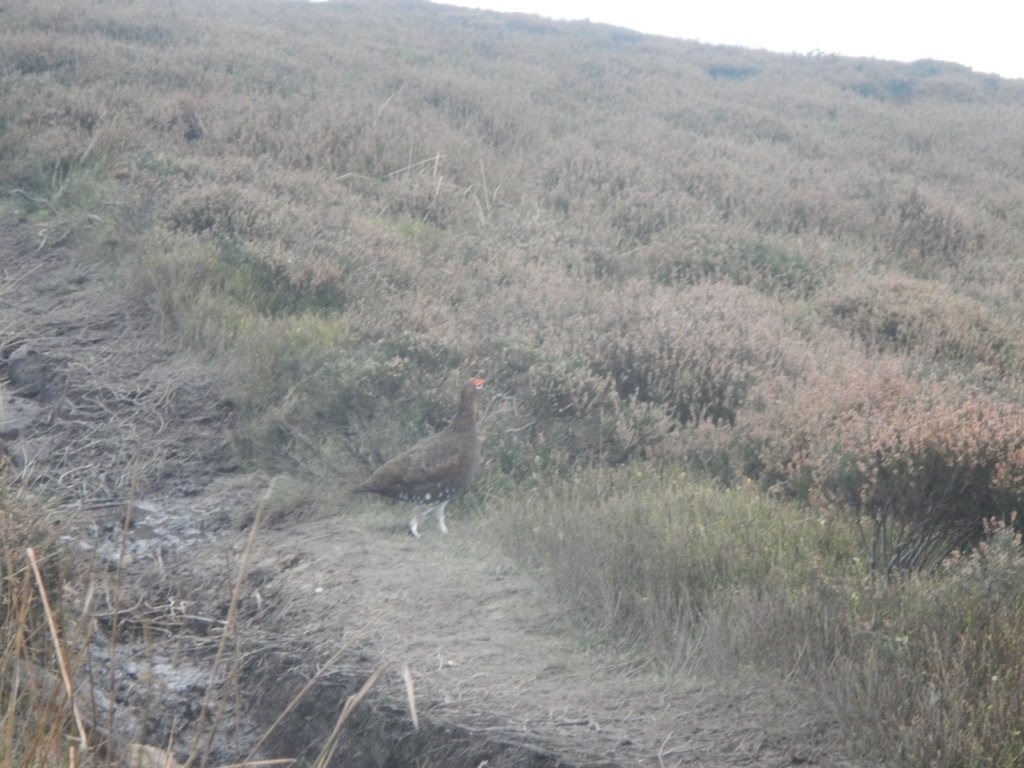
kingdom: Animalia
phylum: Chordata
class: Aves
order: Galliformes
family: Phasianidae
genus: Lagopus
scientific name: Lagopus lagopus
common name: Willow ptarmigan
